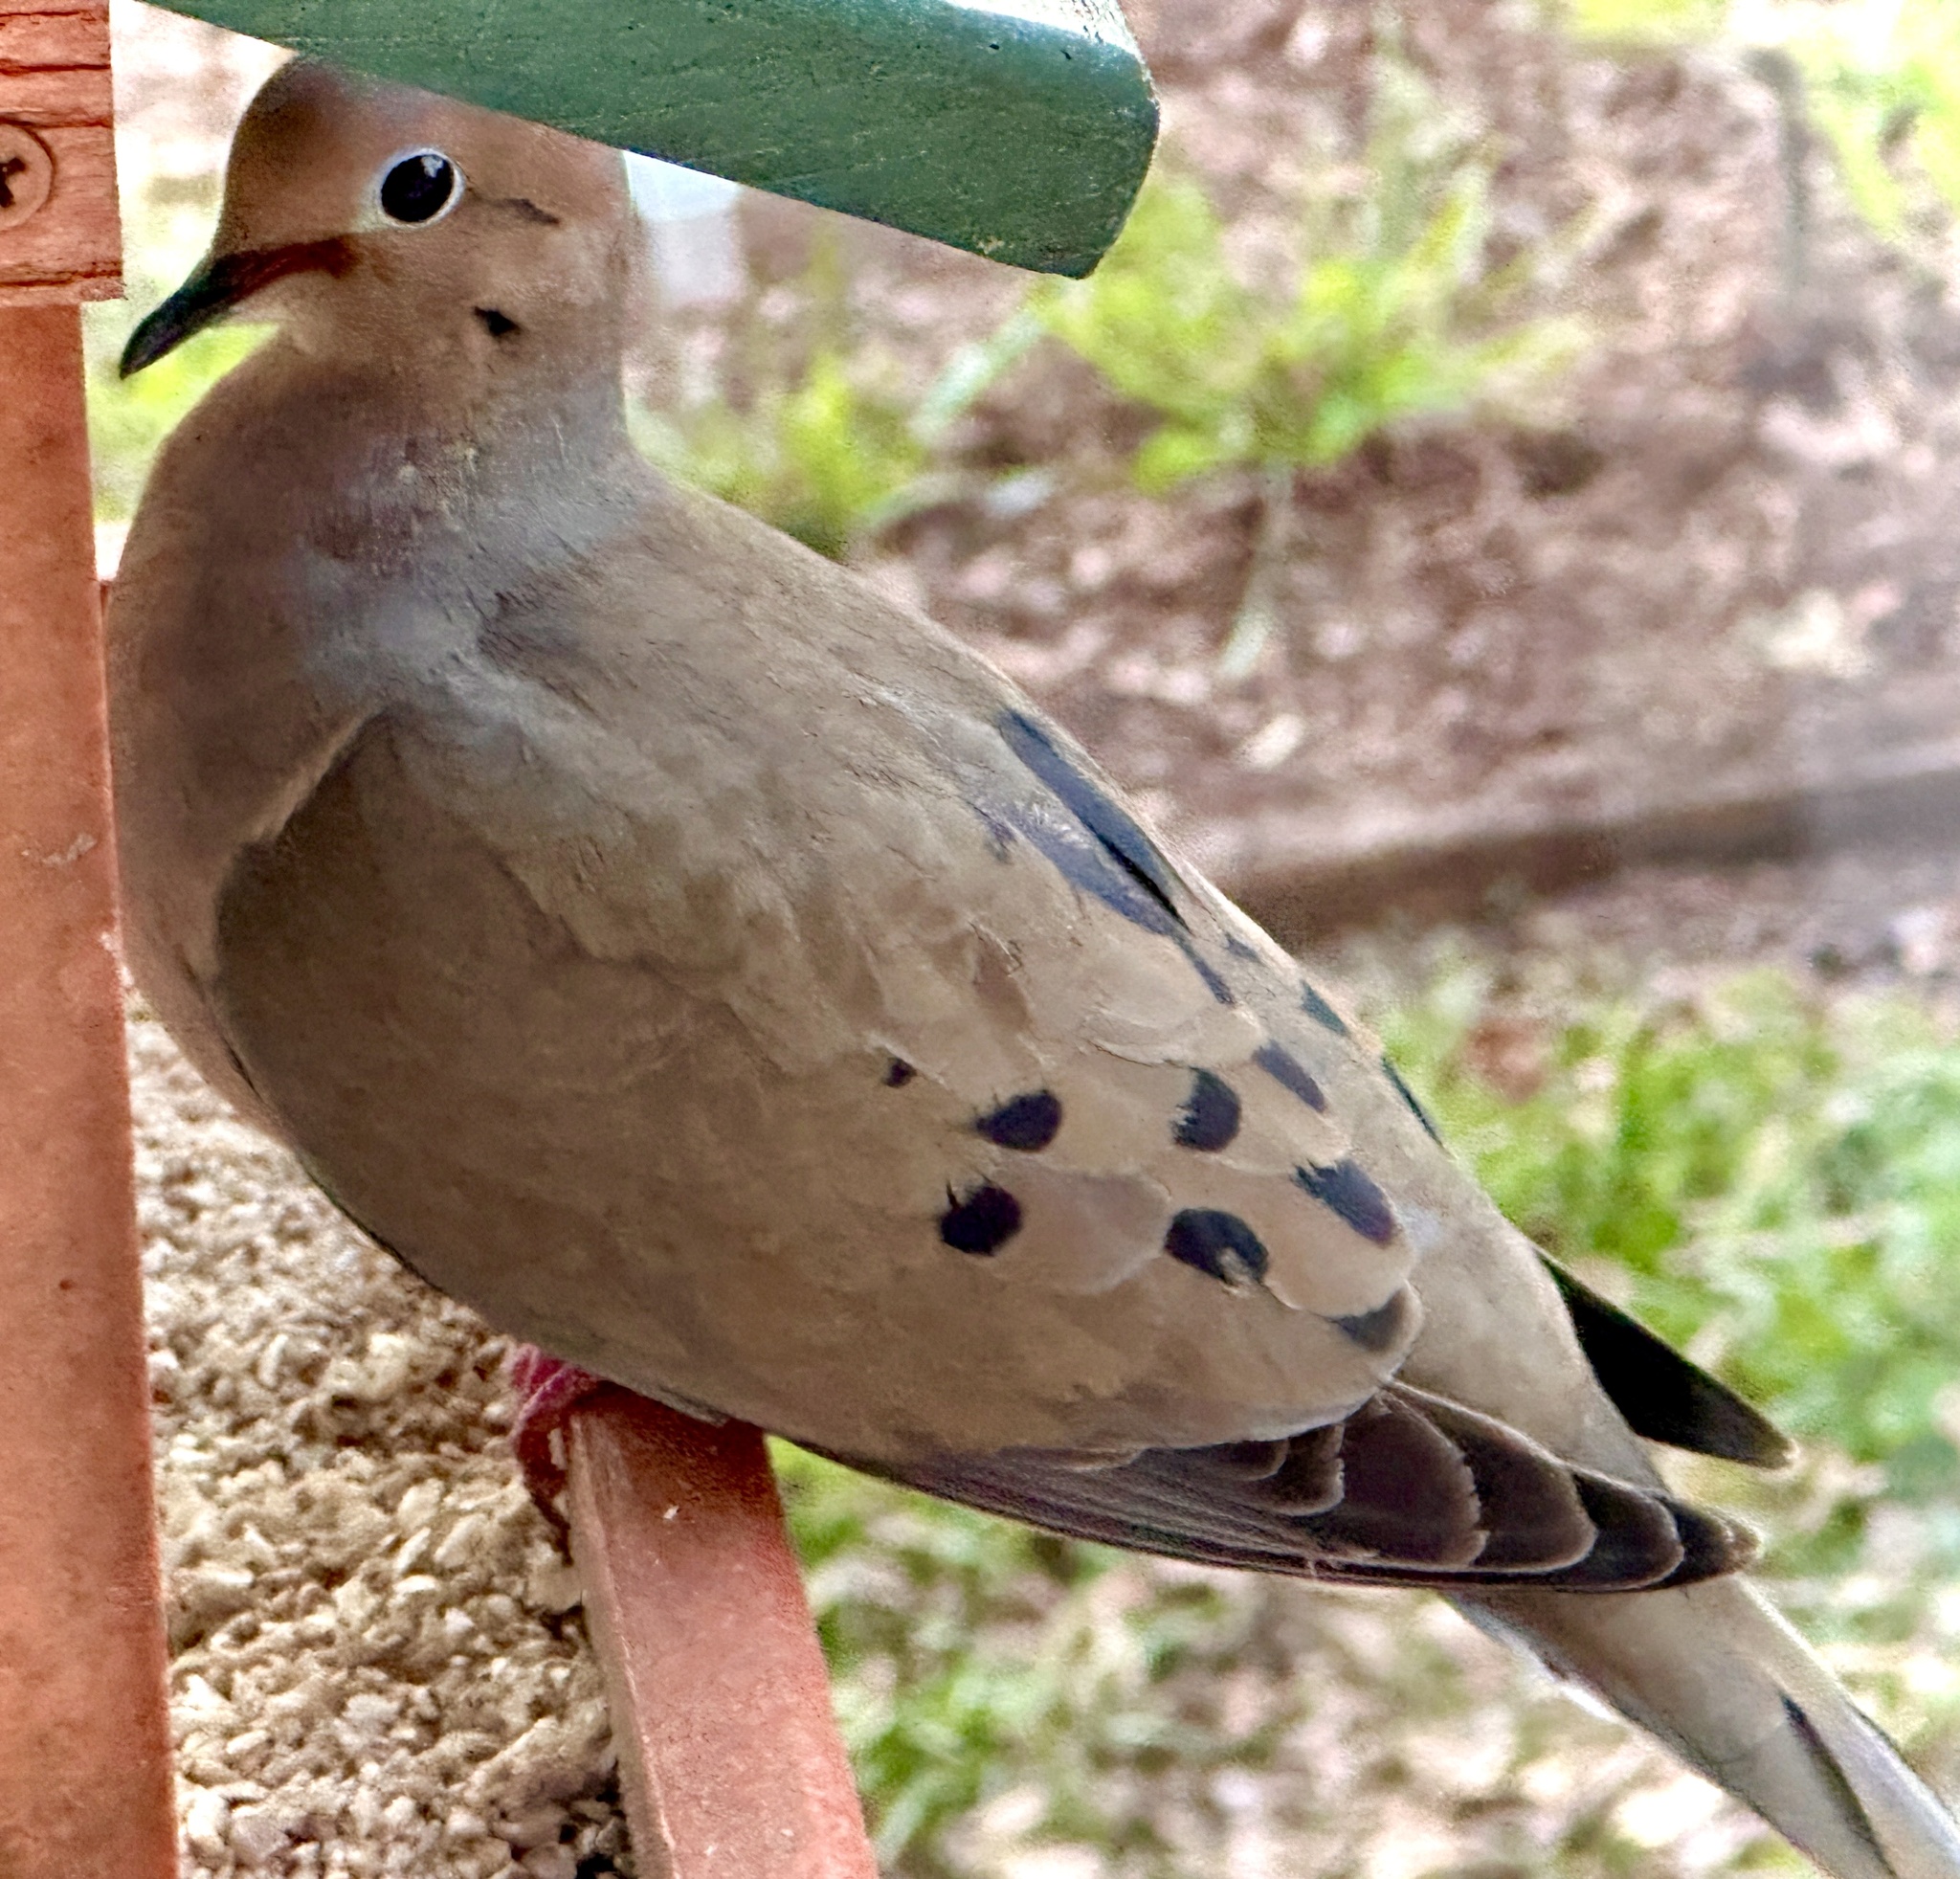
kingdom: Animalia
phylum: Chordata
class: Aves
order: Columbiformes
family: Columbidae
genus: Zenaida
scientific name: Zenaida macroura
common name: Mourning dove
